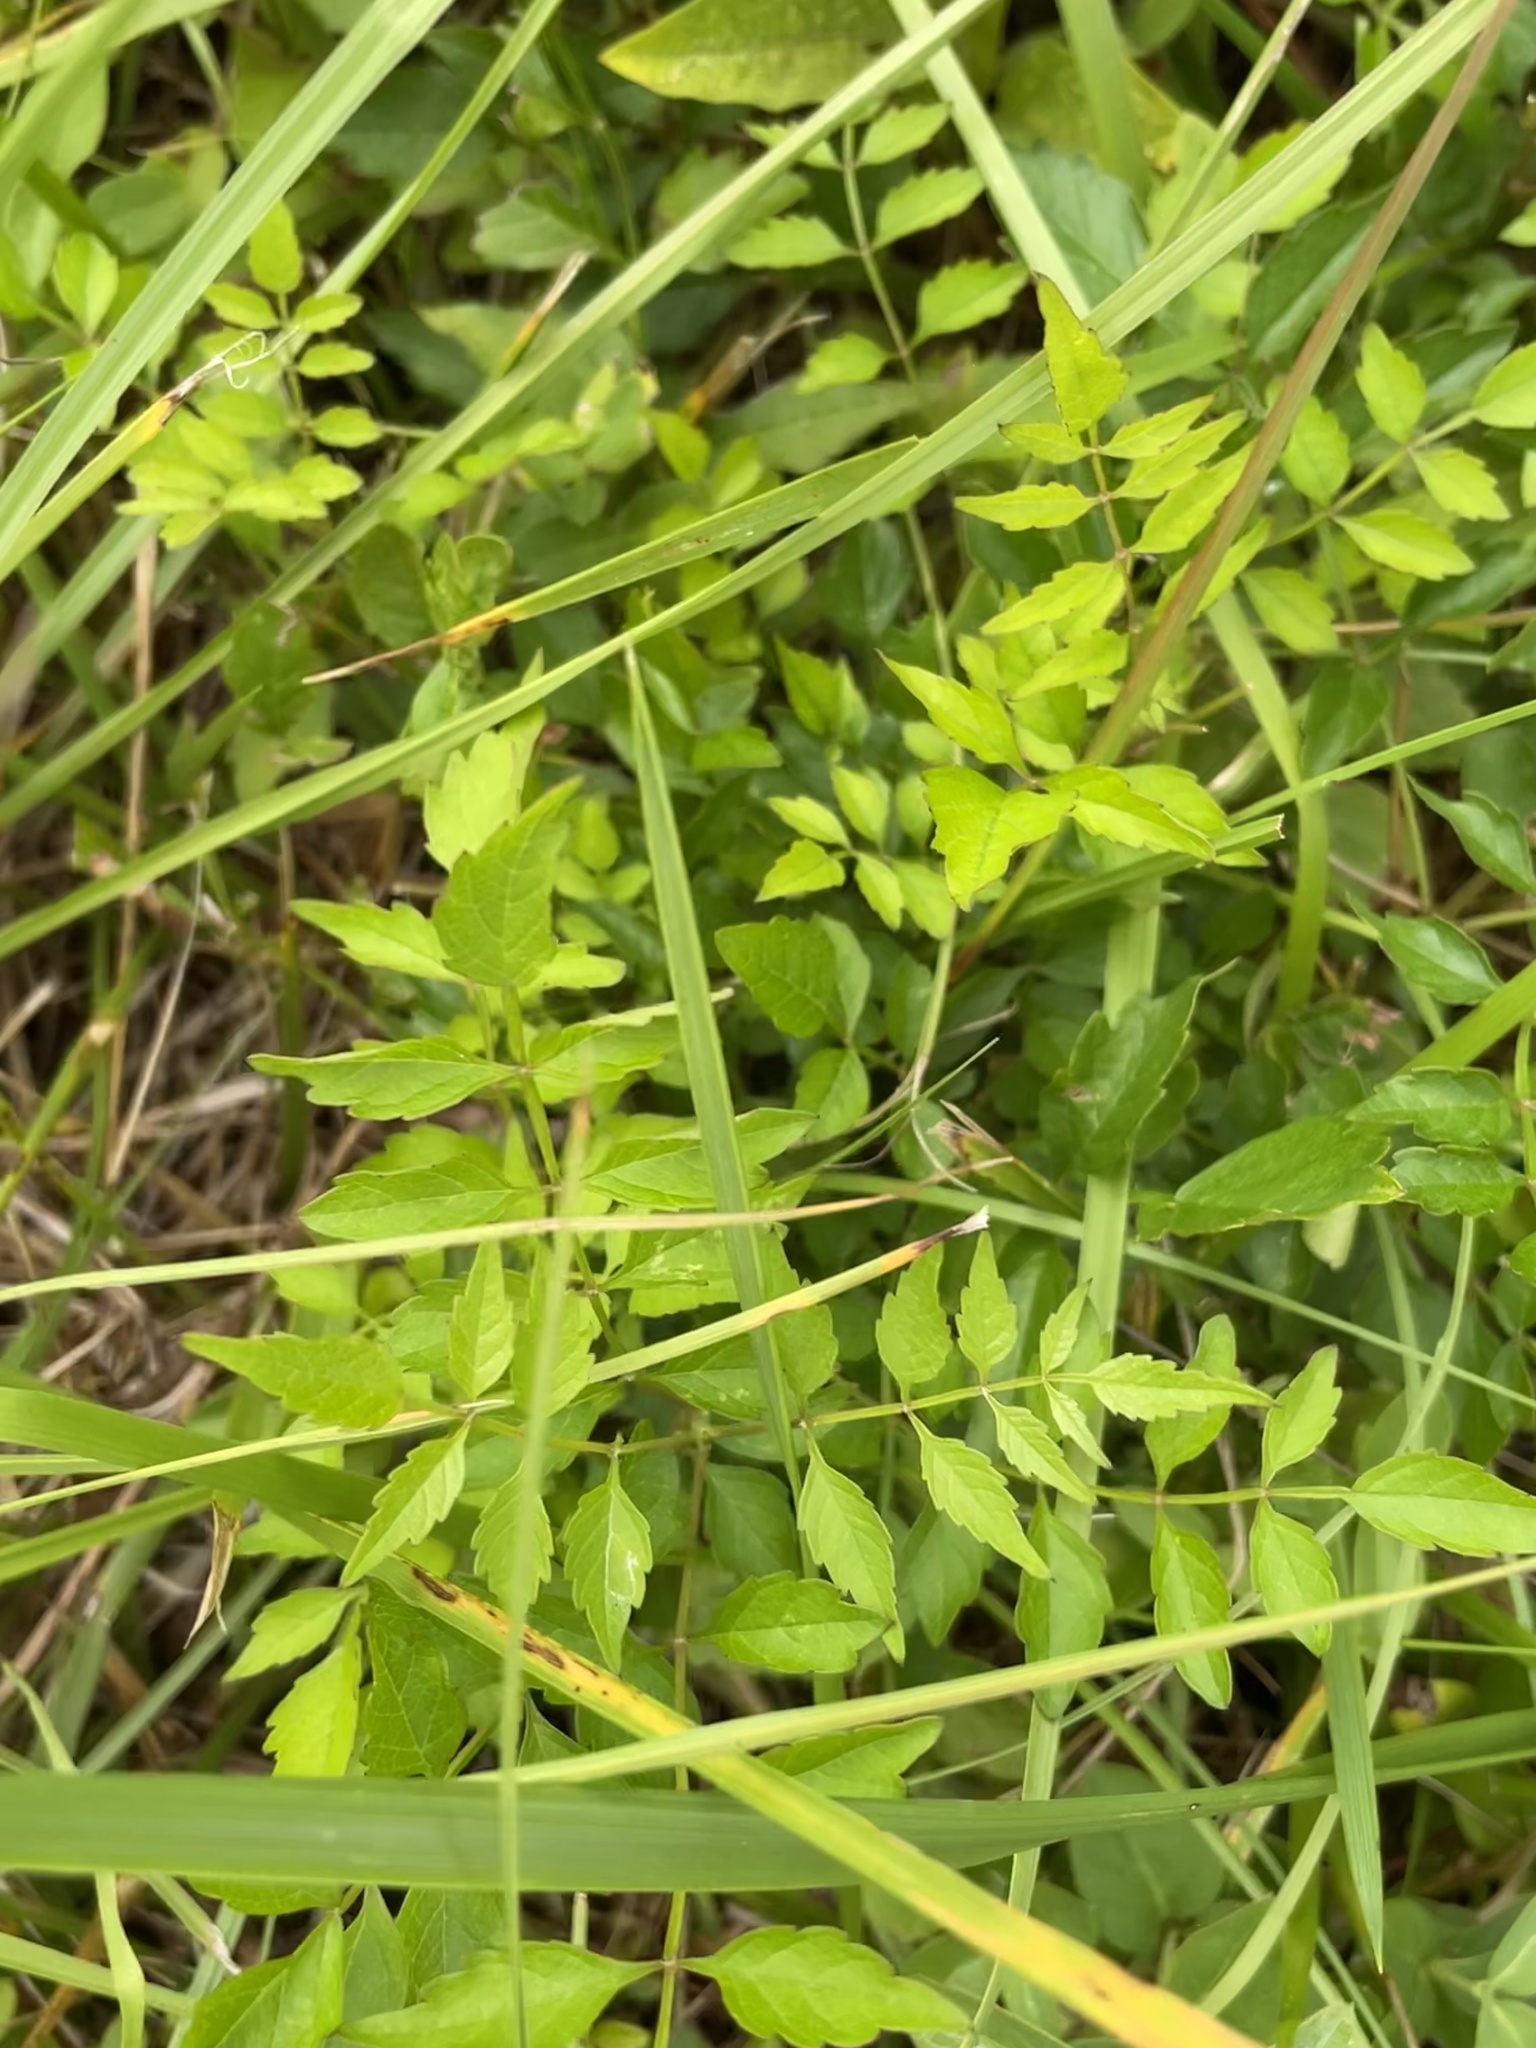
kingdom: Plantae
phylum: Tracheophyta
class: Magnoliopsida
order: Lamiales
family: Bignoniaceae
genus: Campsis
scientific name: Campsis radicans
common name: Trumpet-creeper
